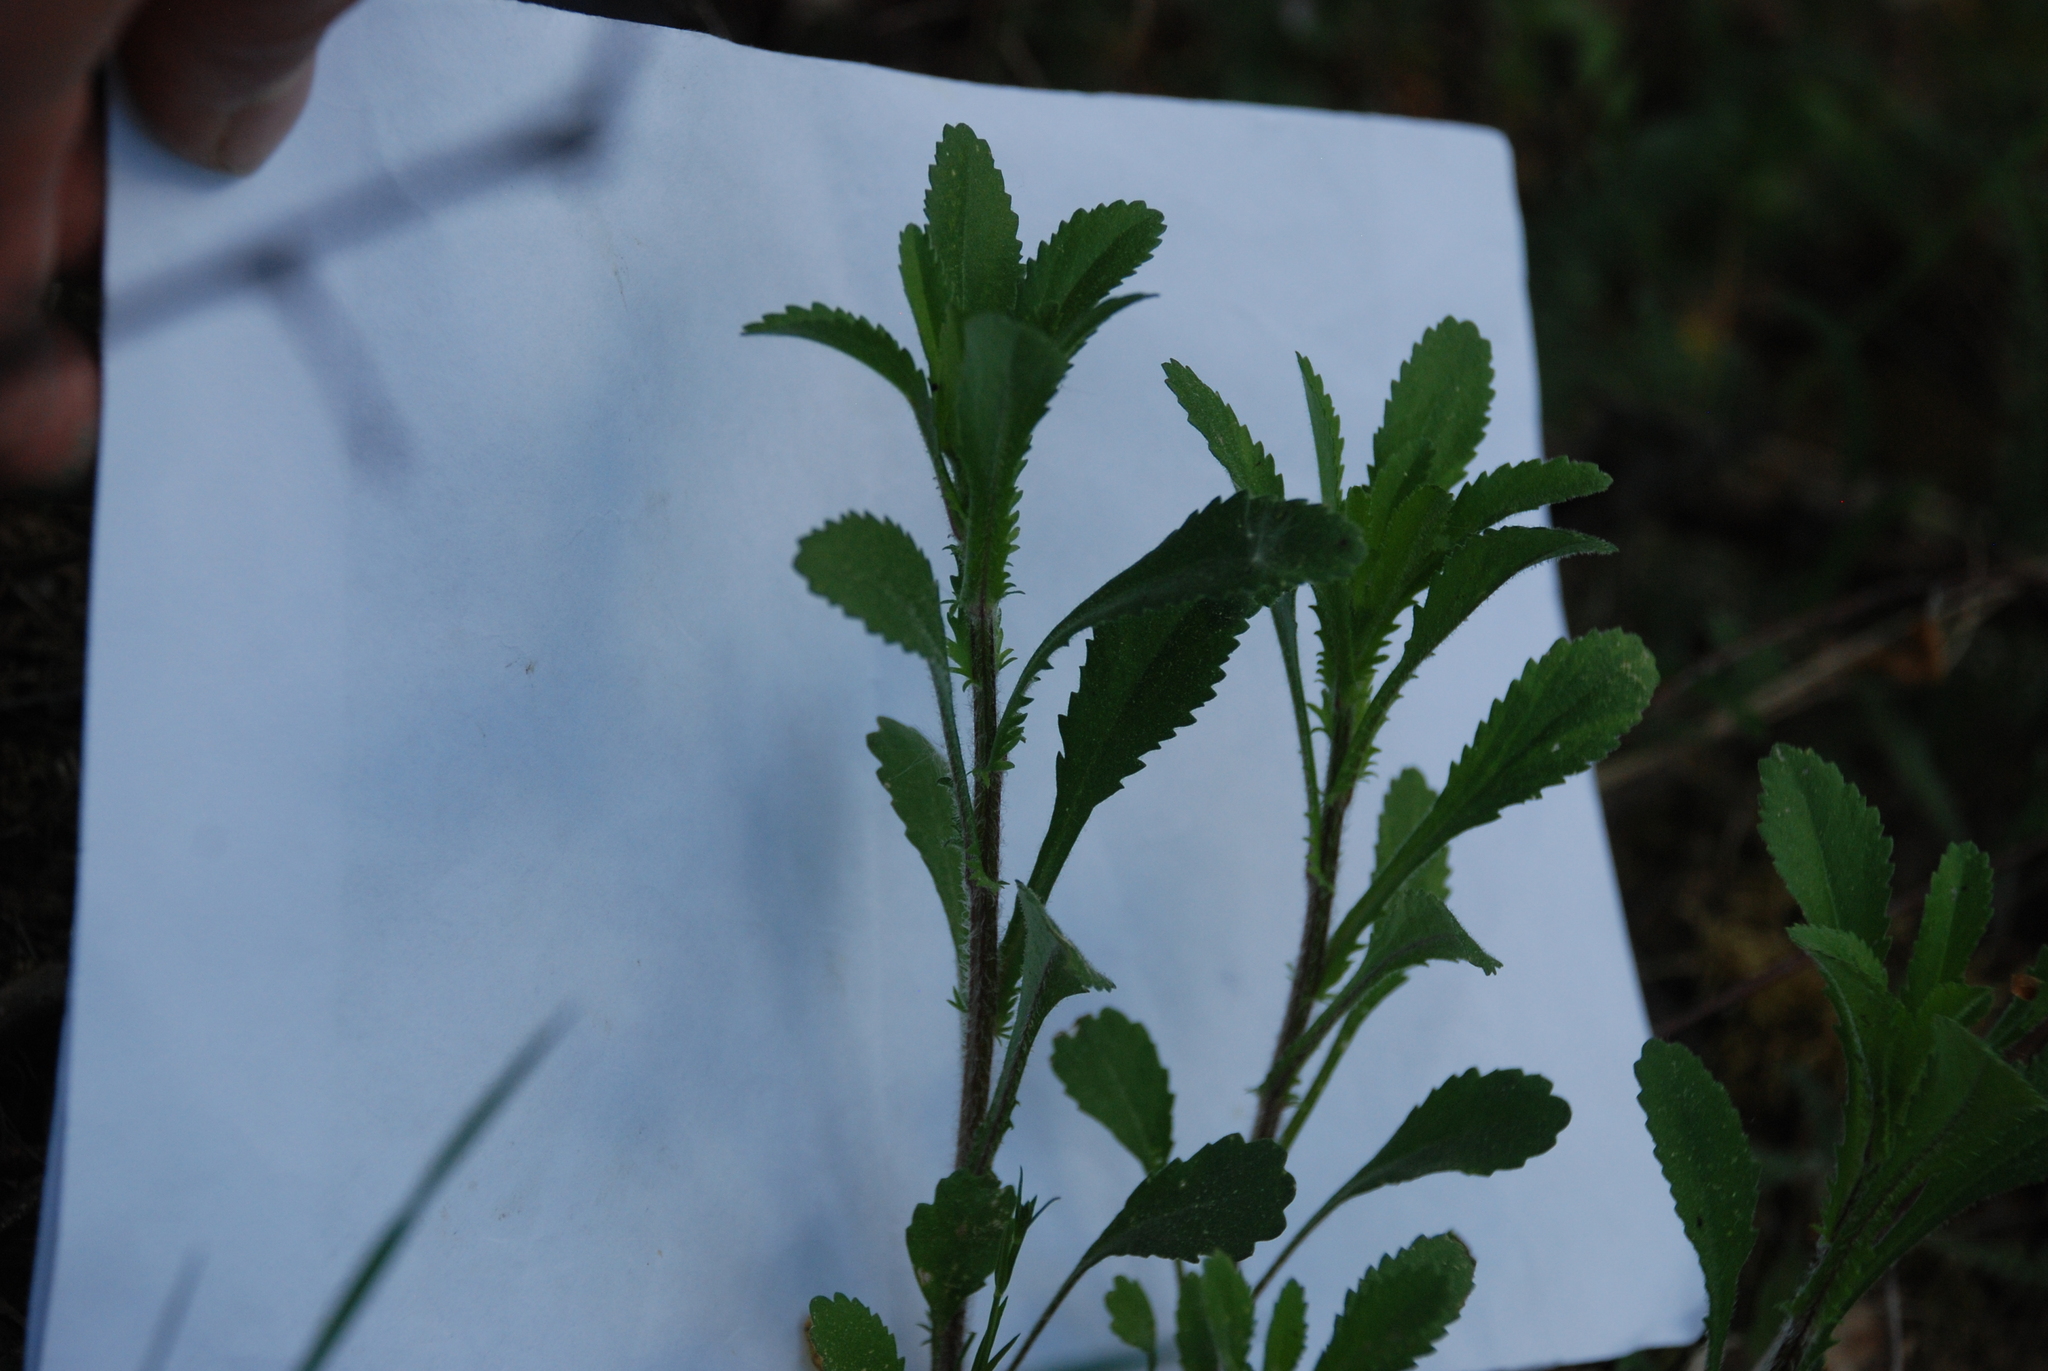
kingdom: Plantae
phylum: Tracheophyta
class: Magnoliopsida
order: Asterales
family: Asteraceae
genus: Leucanthemum
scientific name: Leucanthemum vulgare
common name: Oxeye daisy
